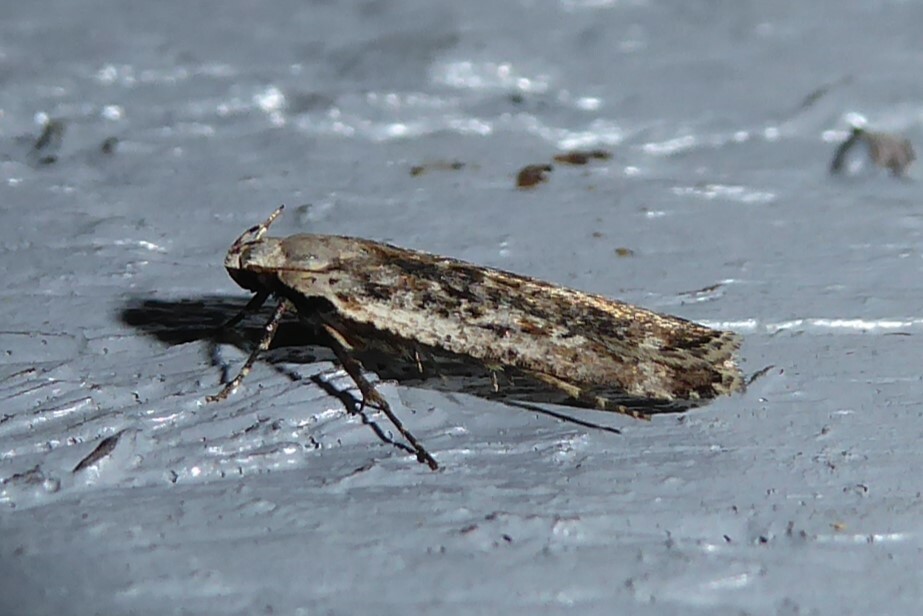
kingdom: Animalia
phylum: Arthropoda
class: Insecta
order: Lepidoptera
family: Gelechiidae
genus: Anisoplaca
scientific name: Anisoplaca achyrota
